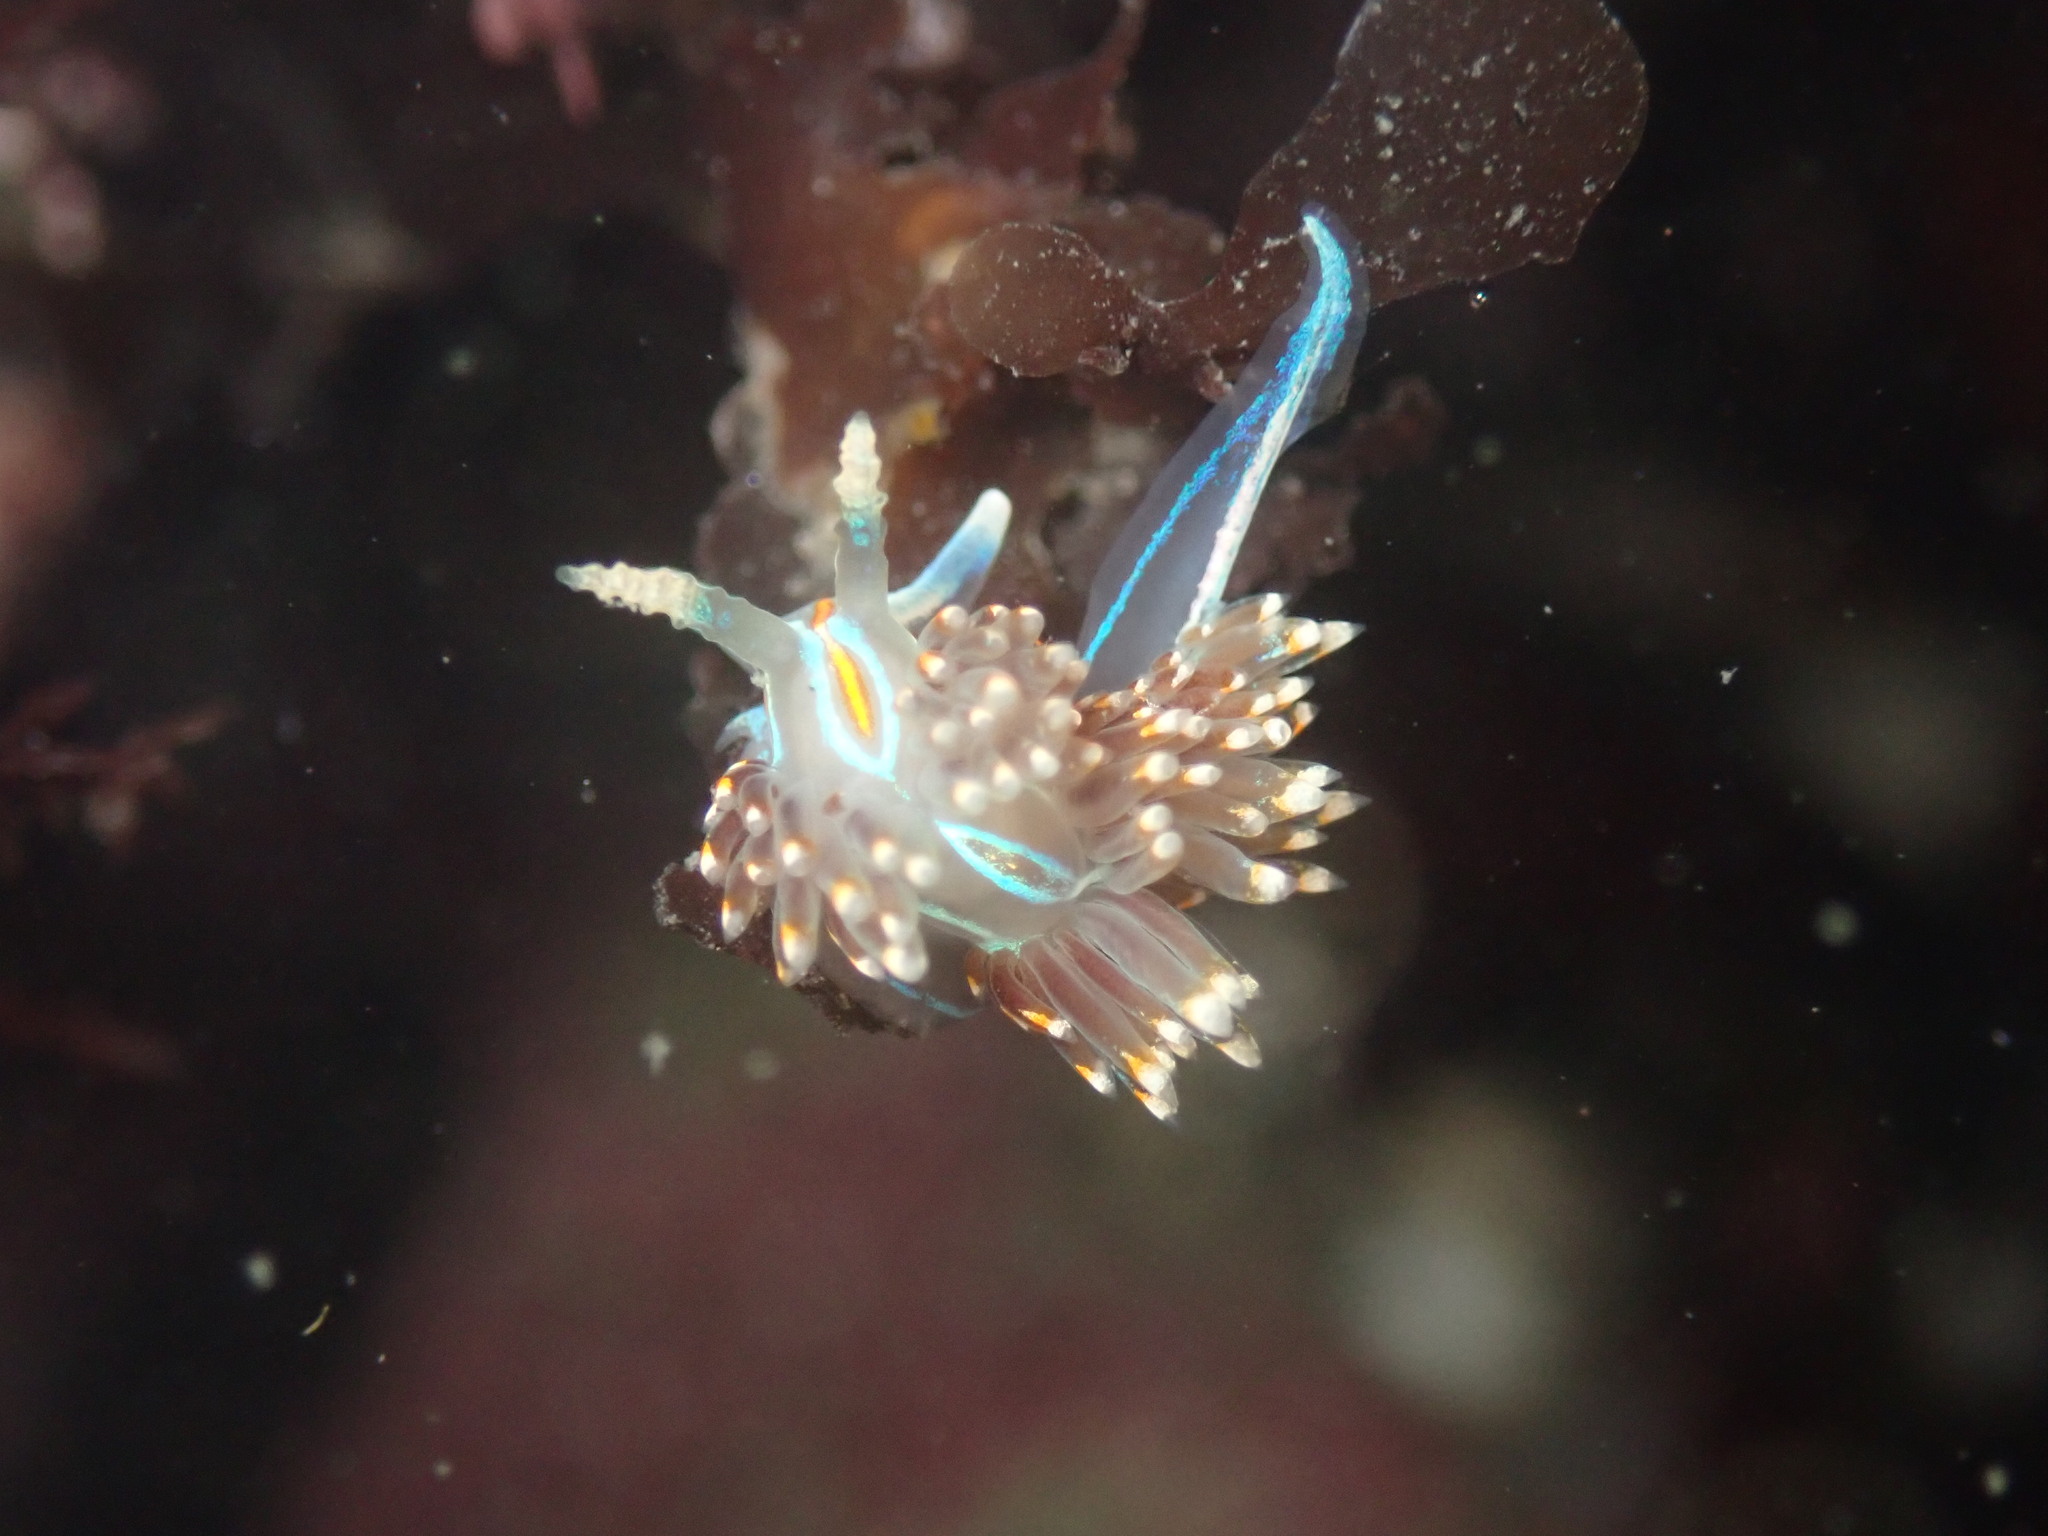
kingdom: Animalia
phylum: Mollusca
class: Gastropoda
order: Nudibranchia
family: Myrrhinidae
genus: Hermissenda
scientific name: Hermissenda opalescens
